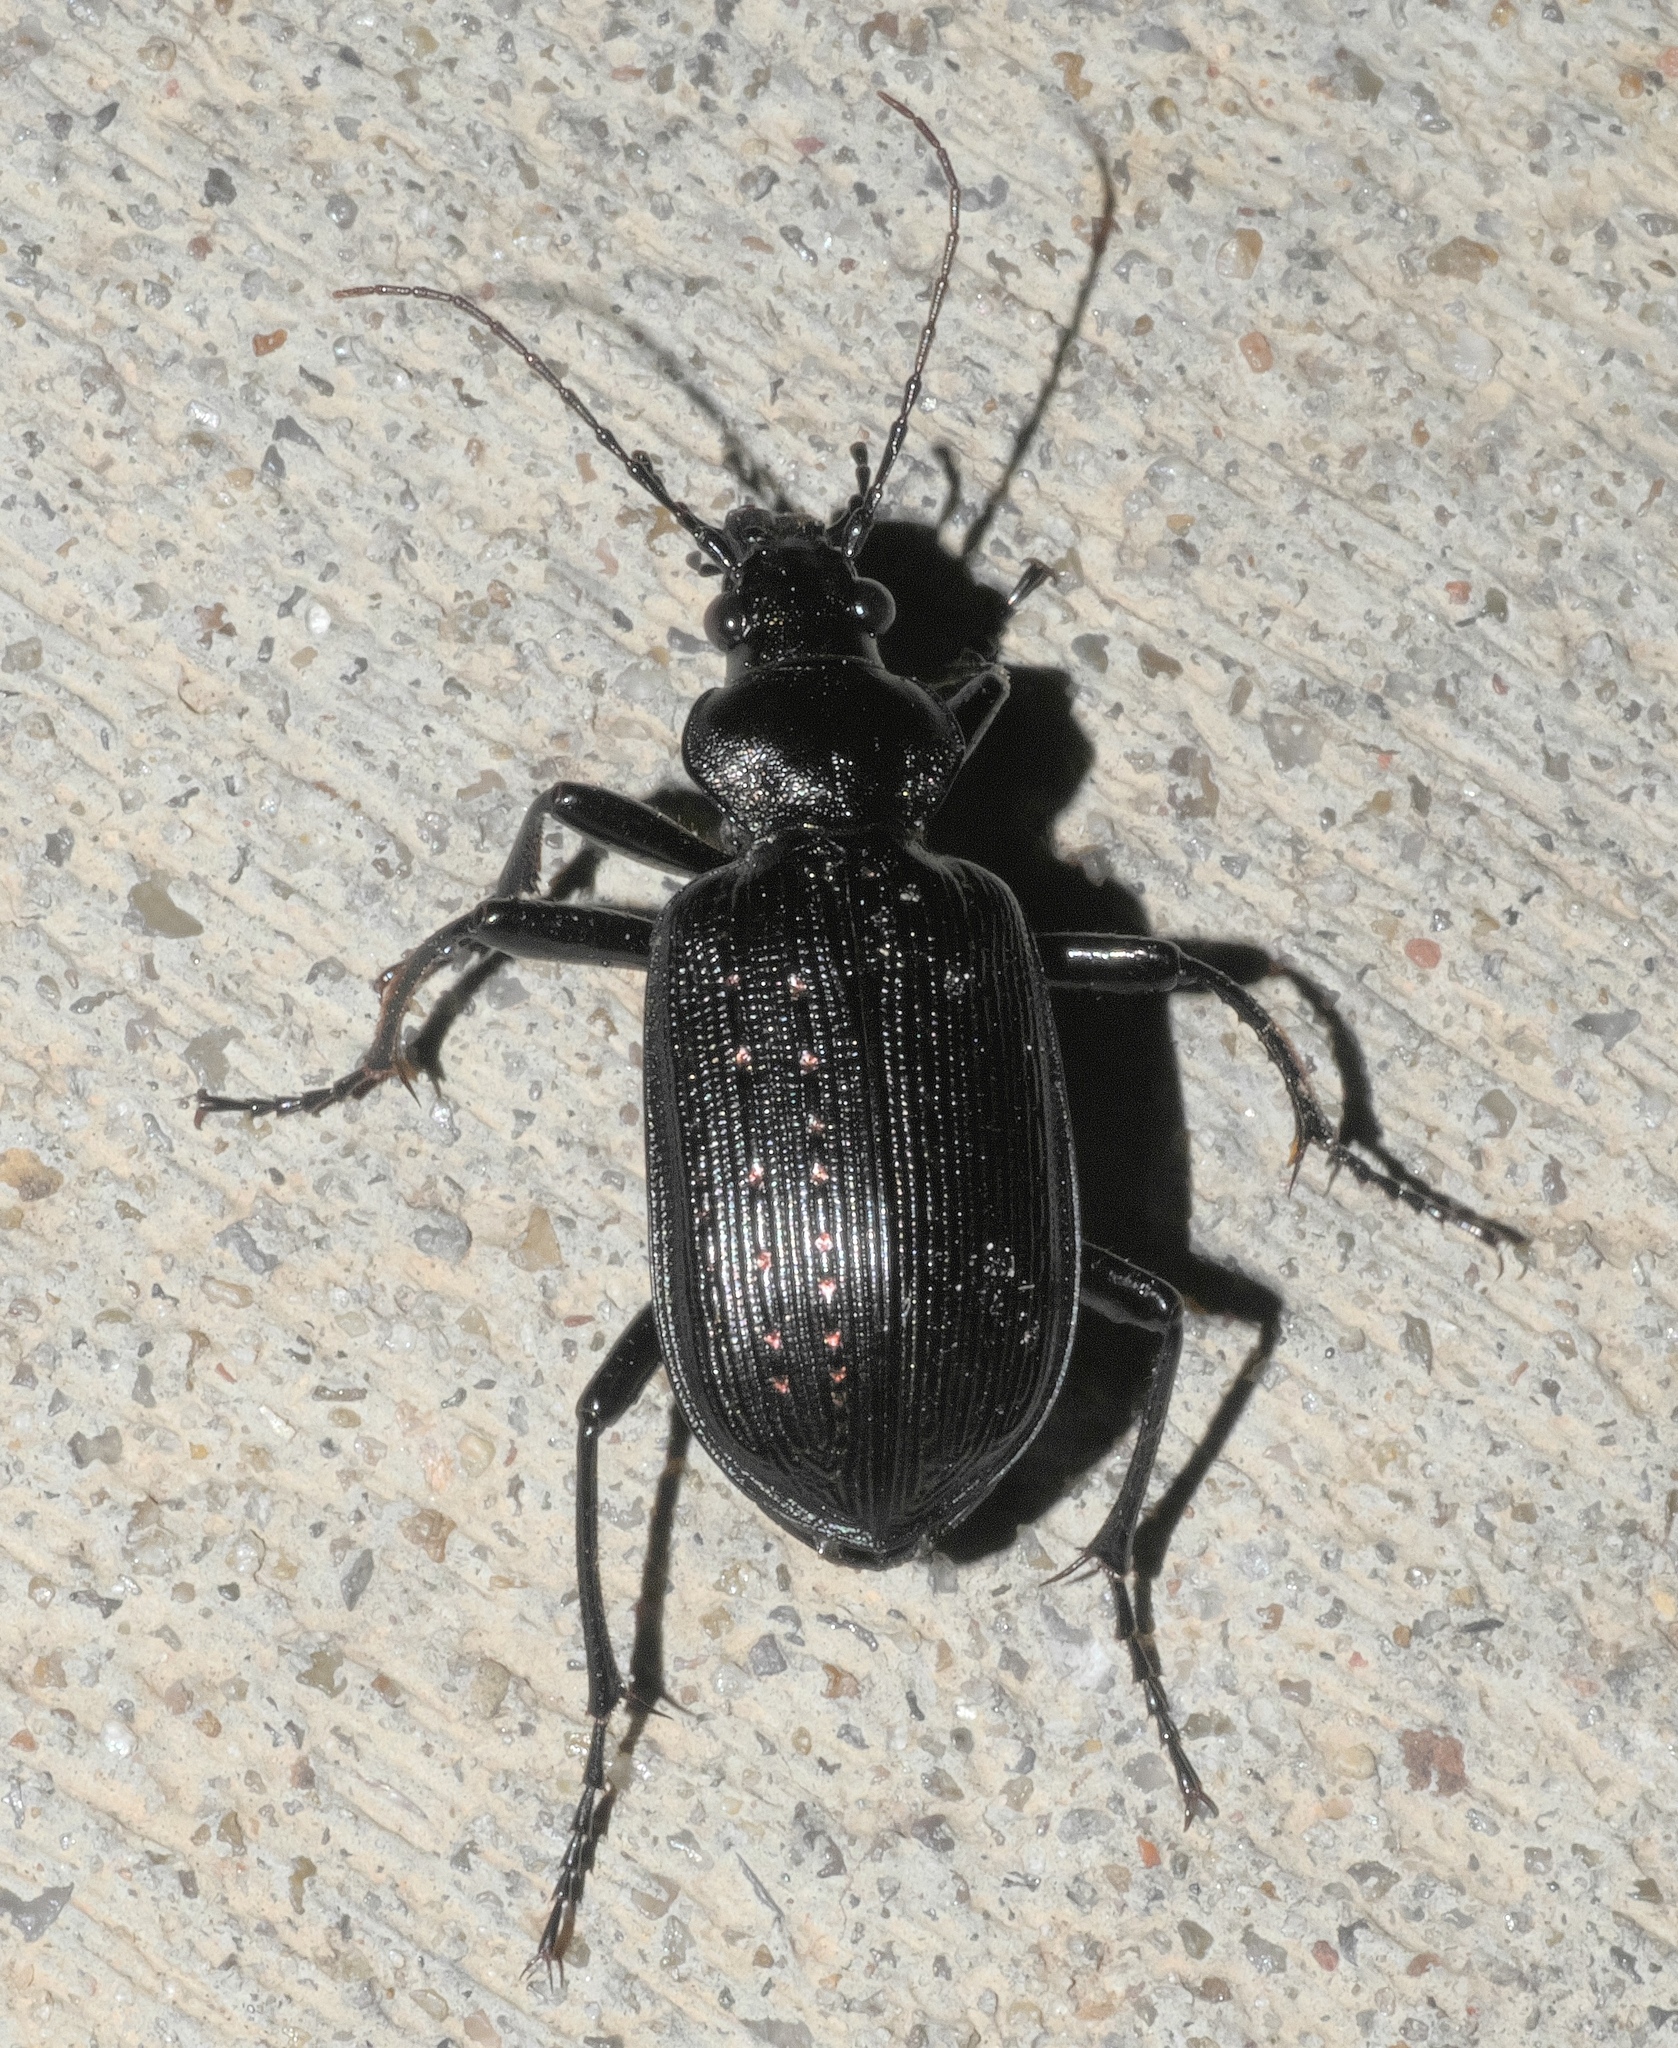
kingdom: Animalia
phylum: Arthropoda
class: Insecta
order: Coleoptera
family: Carabidae
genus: Calosoma
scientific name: Calosoma sayi
